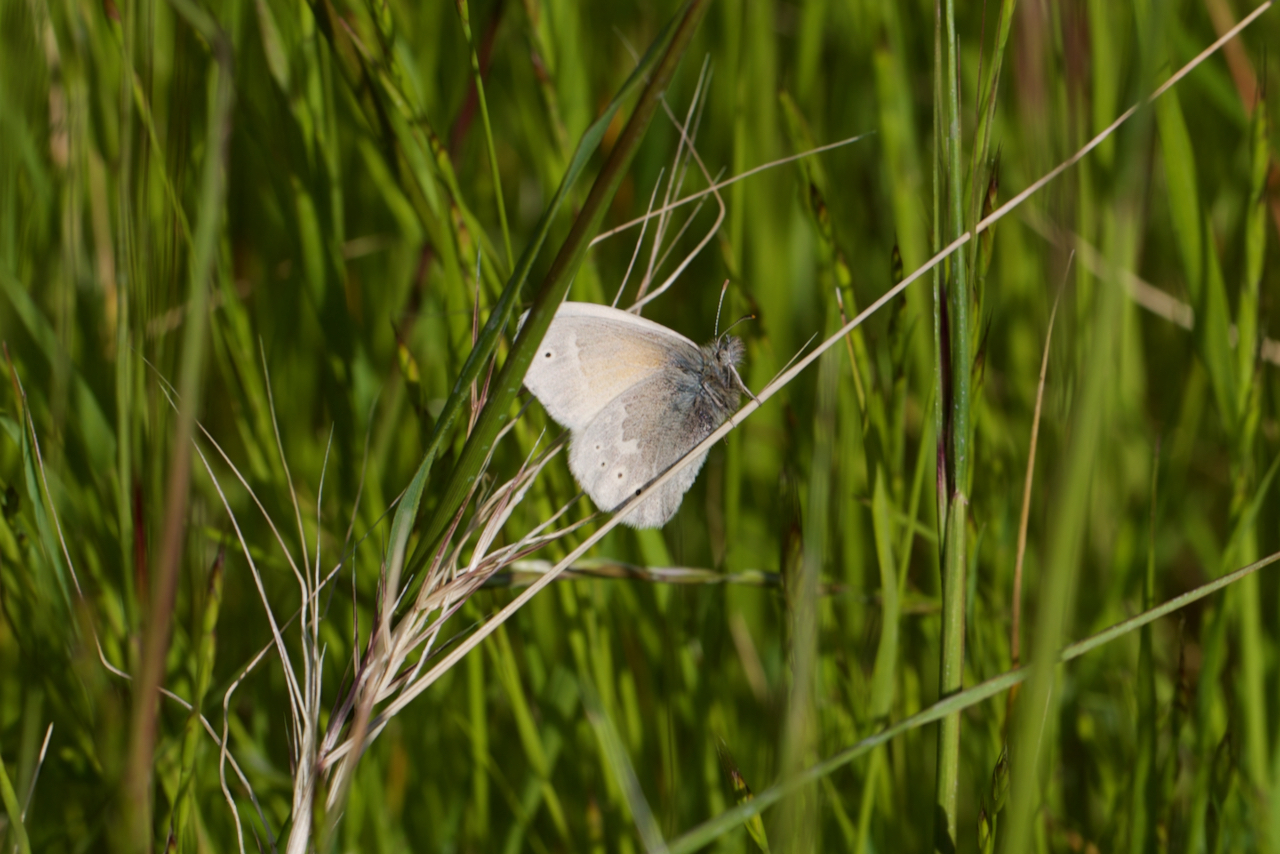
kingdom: Animalia
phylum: Arthropoda
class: Insecta
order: Lepidoptera
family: Nymphalidae
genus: Coenonympha
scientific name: Coenonympha california
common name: Common ringlet
